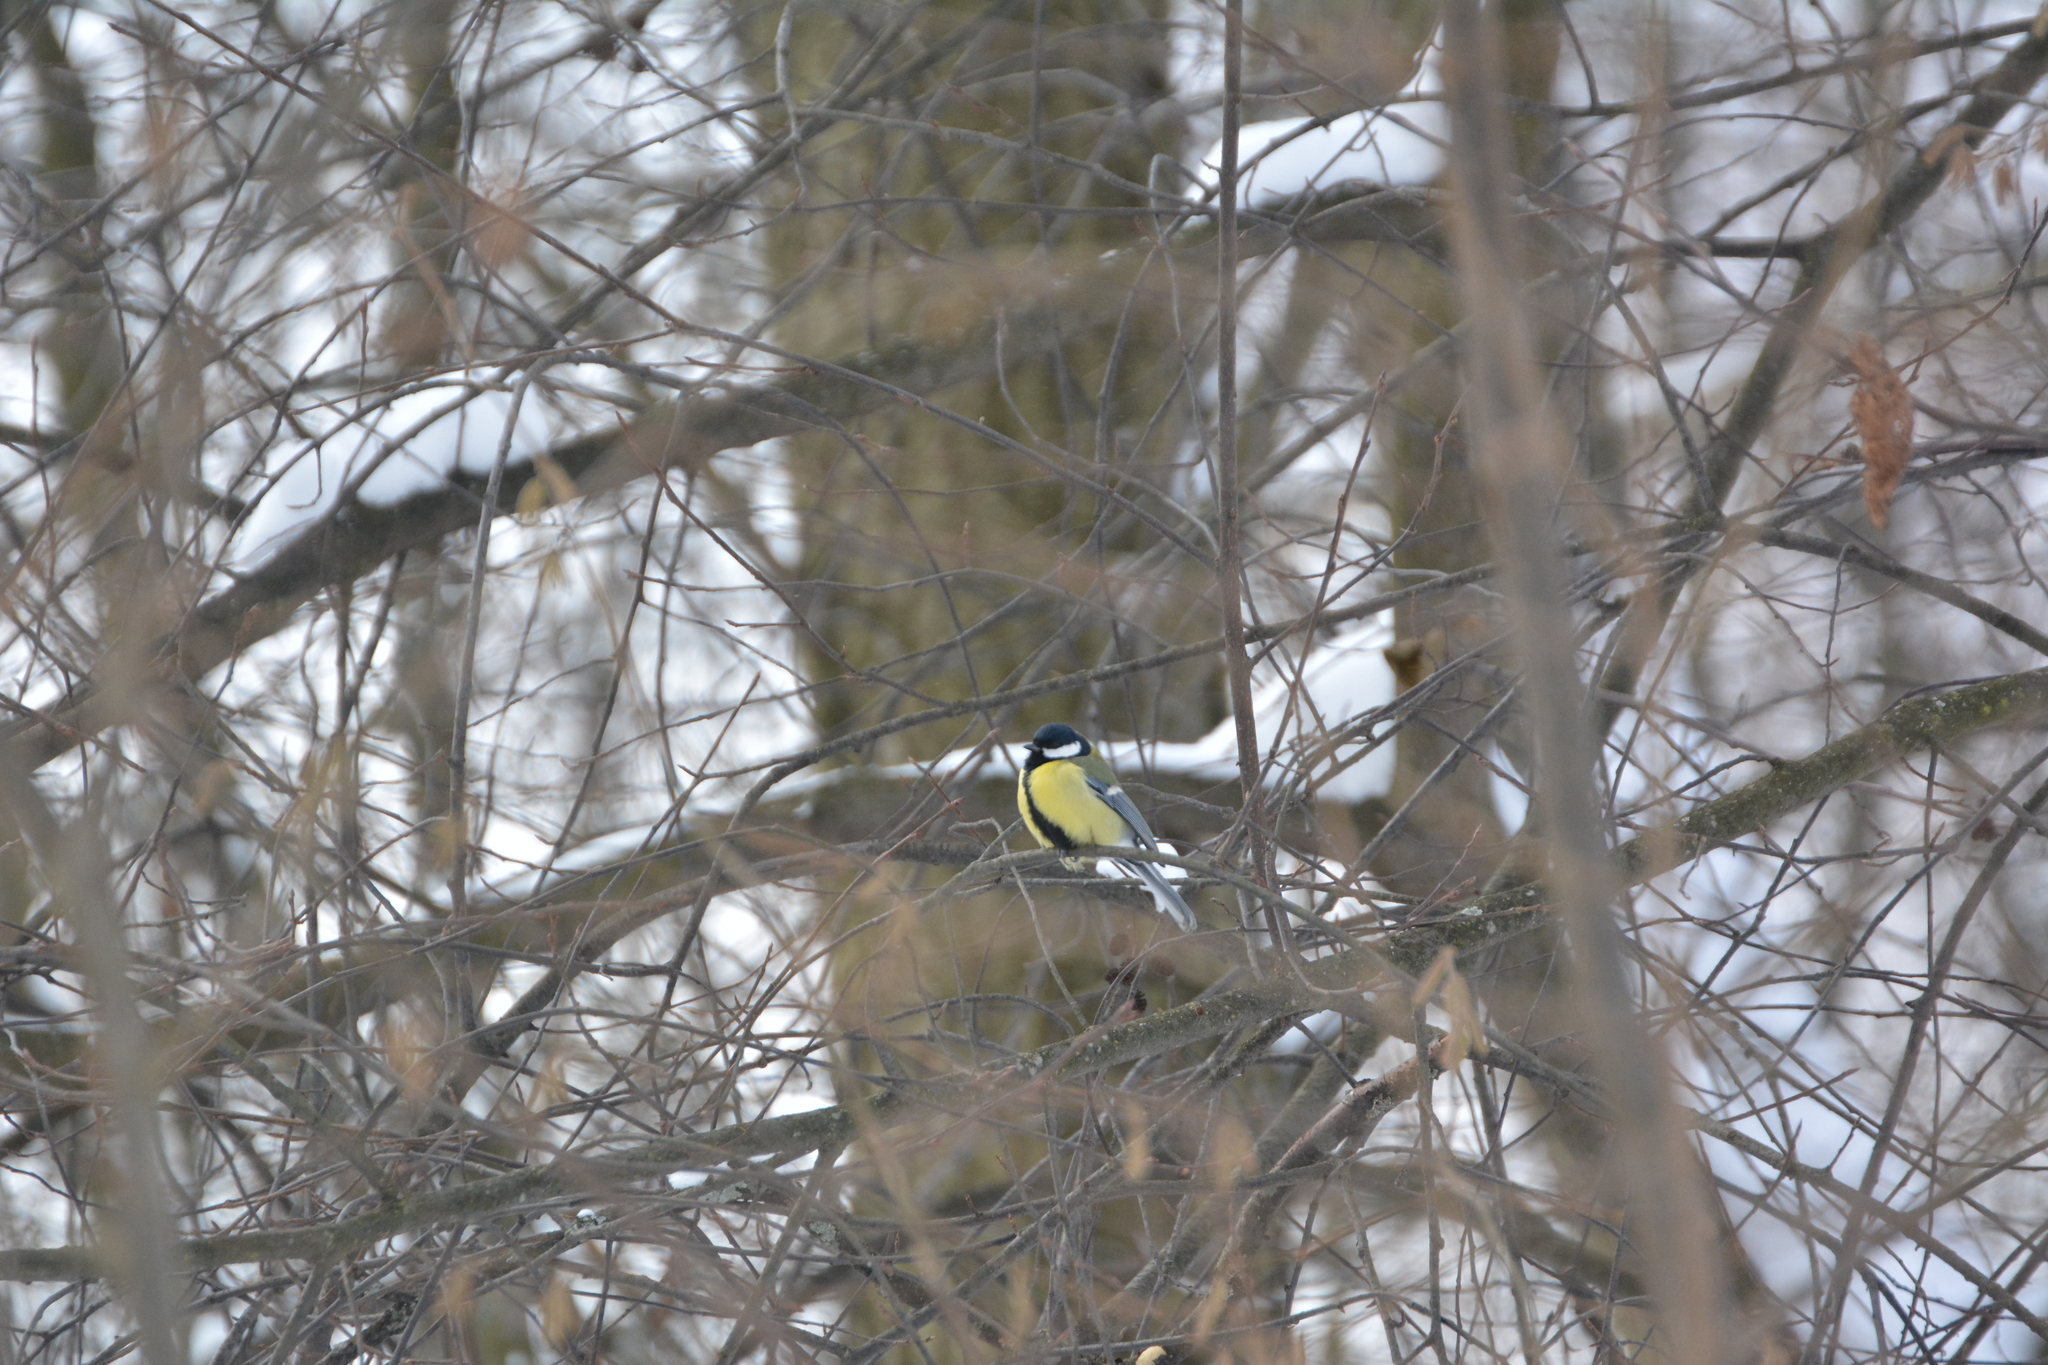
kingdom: Animalia
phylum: Chordata
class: Aves
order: Passeriformes
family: Paridae
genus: Parus
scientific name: Parus major
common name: Great tit
